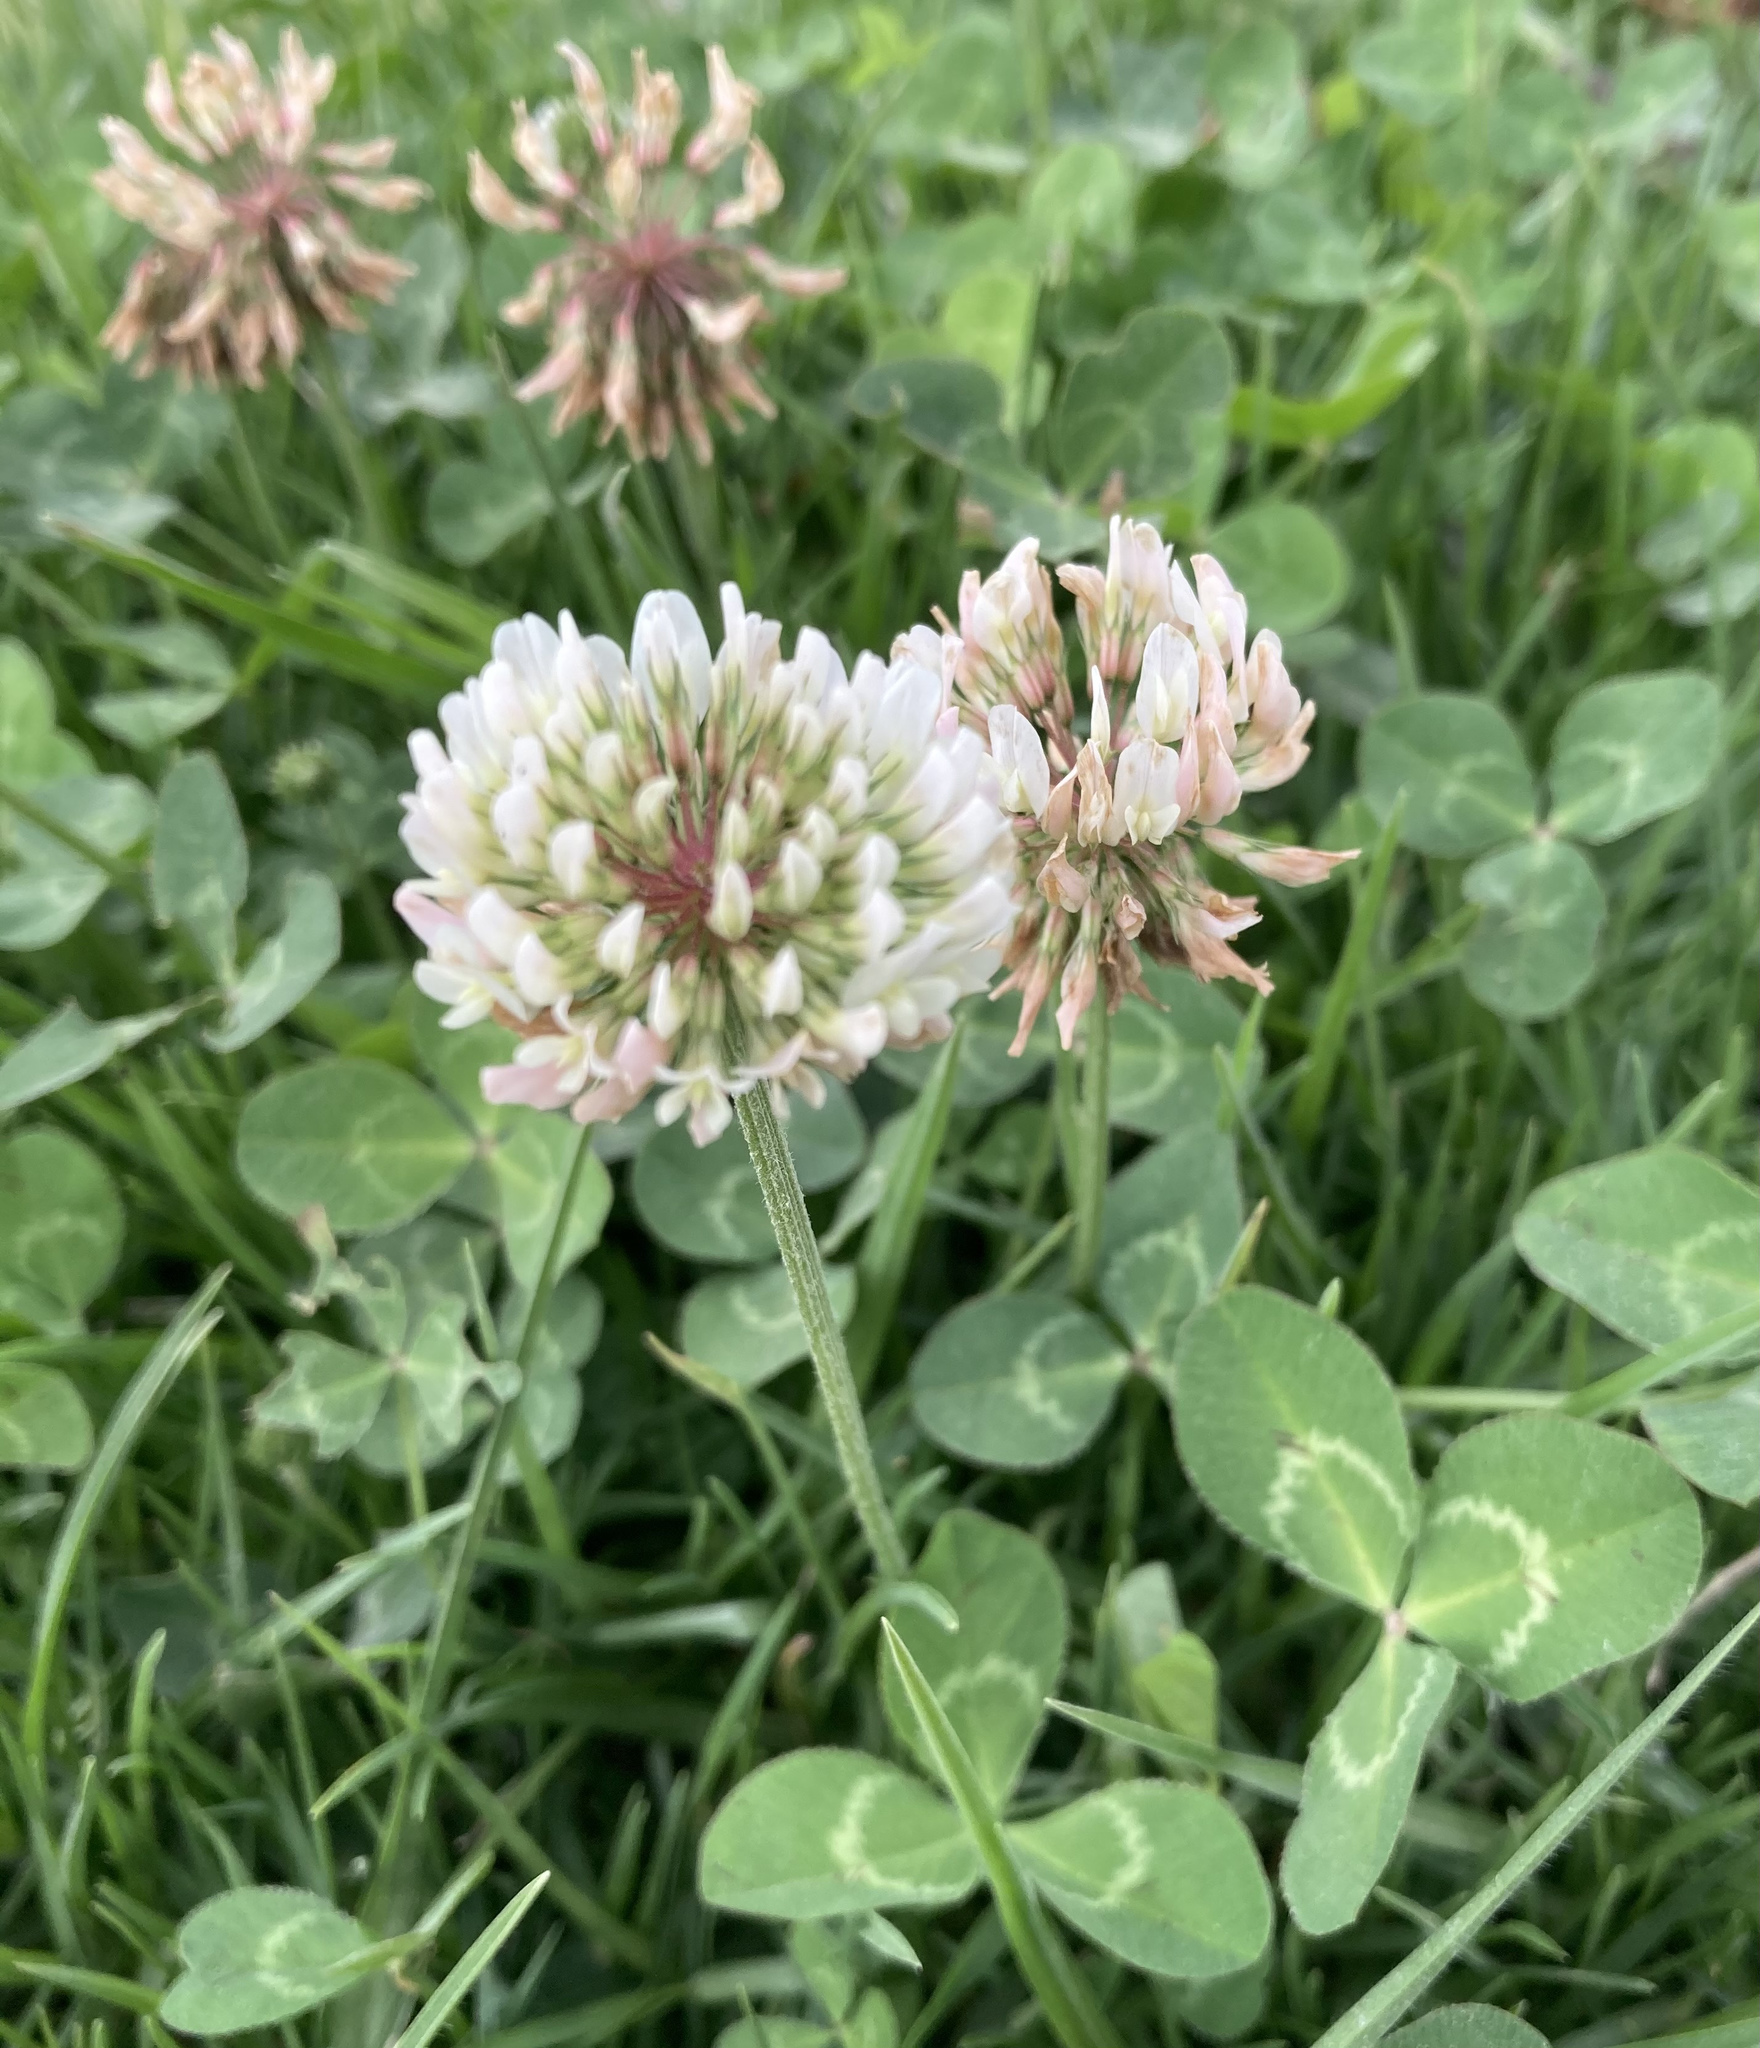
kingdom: Plantae
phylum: Tracheophyta
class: Magnoliopsida
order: Fabales
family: Fabaceae
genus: Trifolium
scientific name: Trifolium repens
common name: White clover
